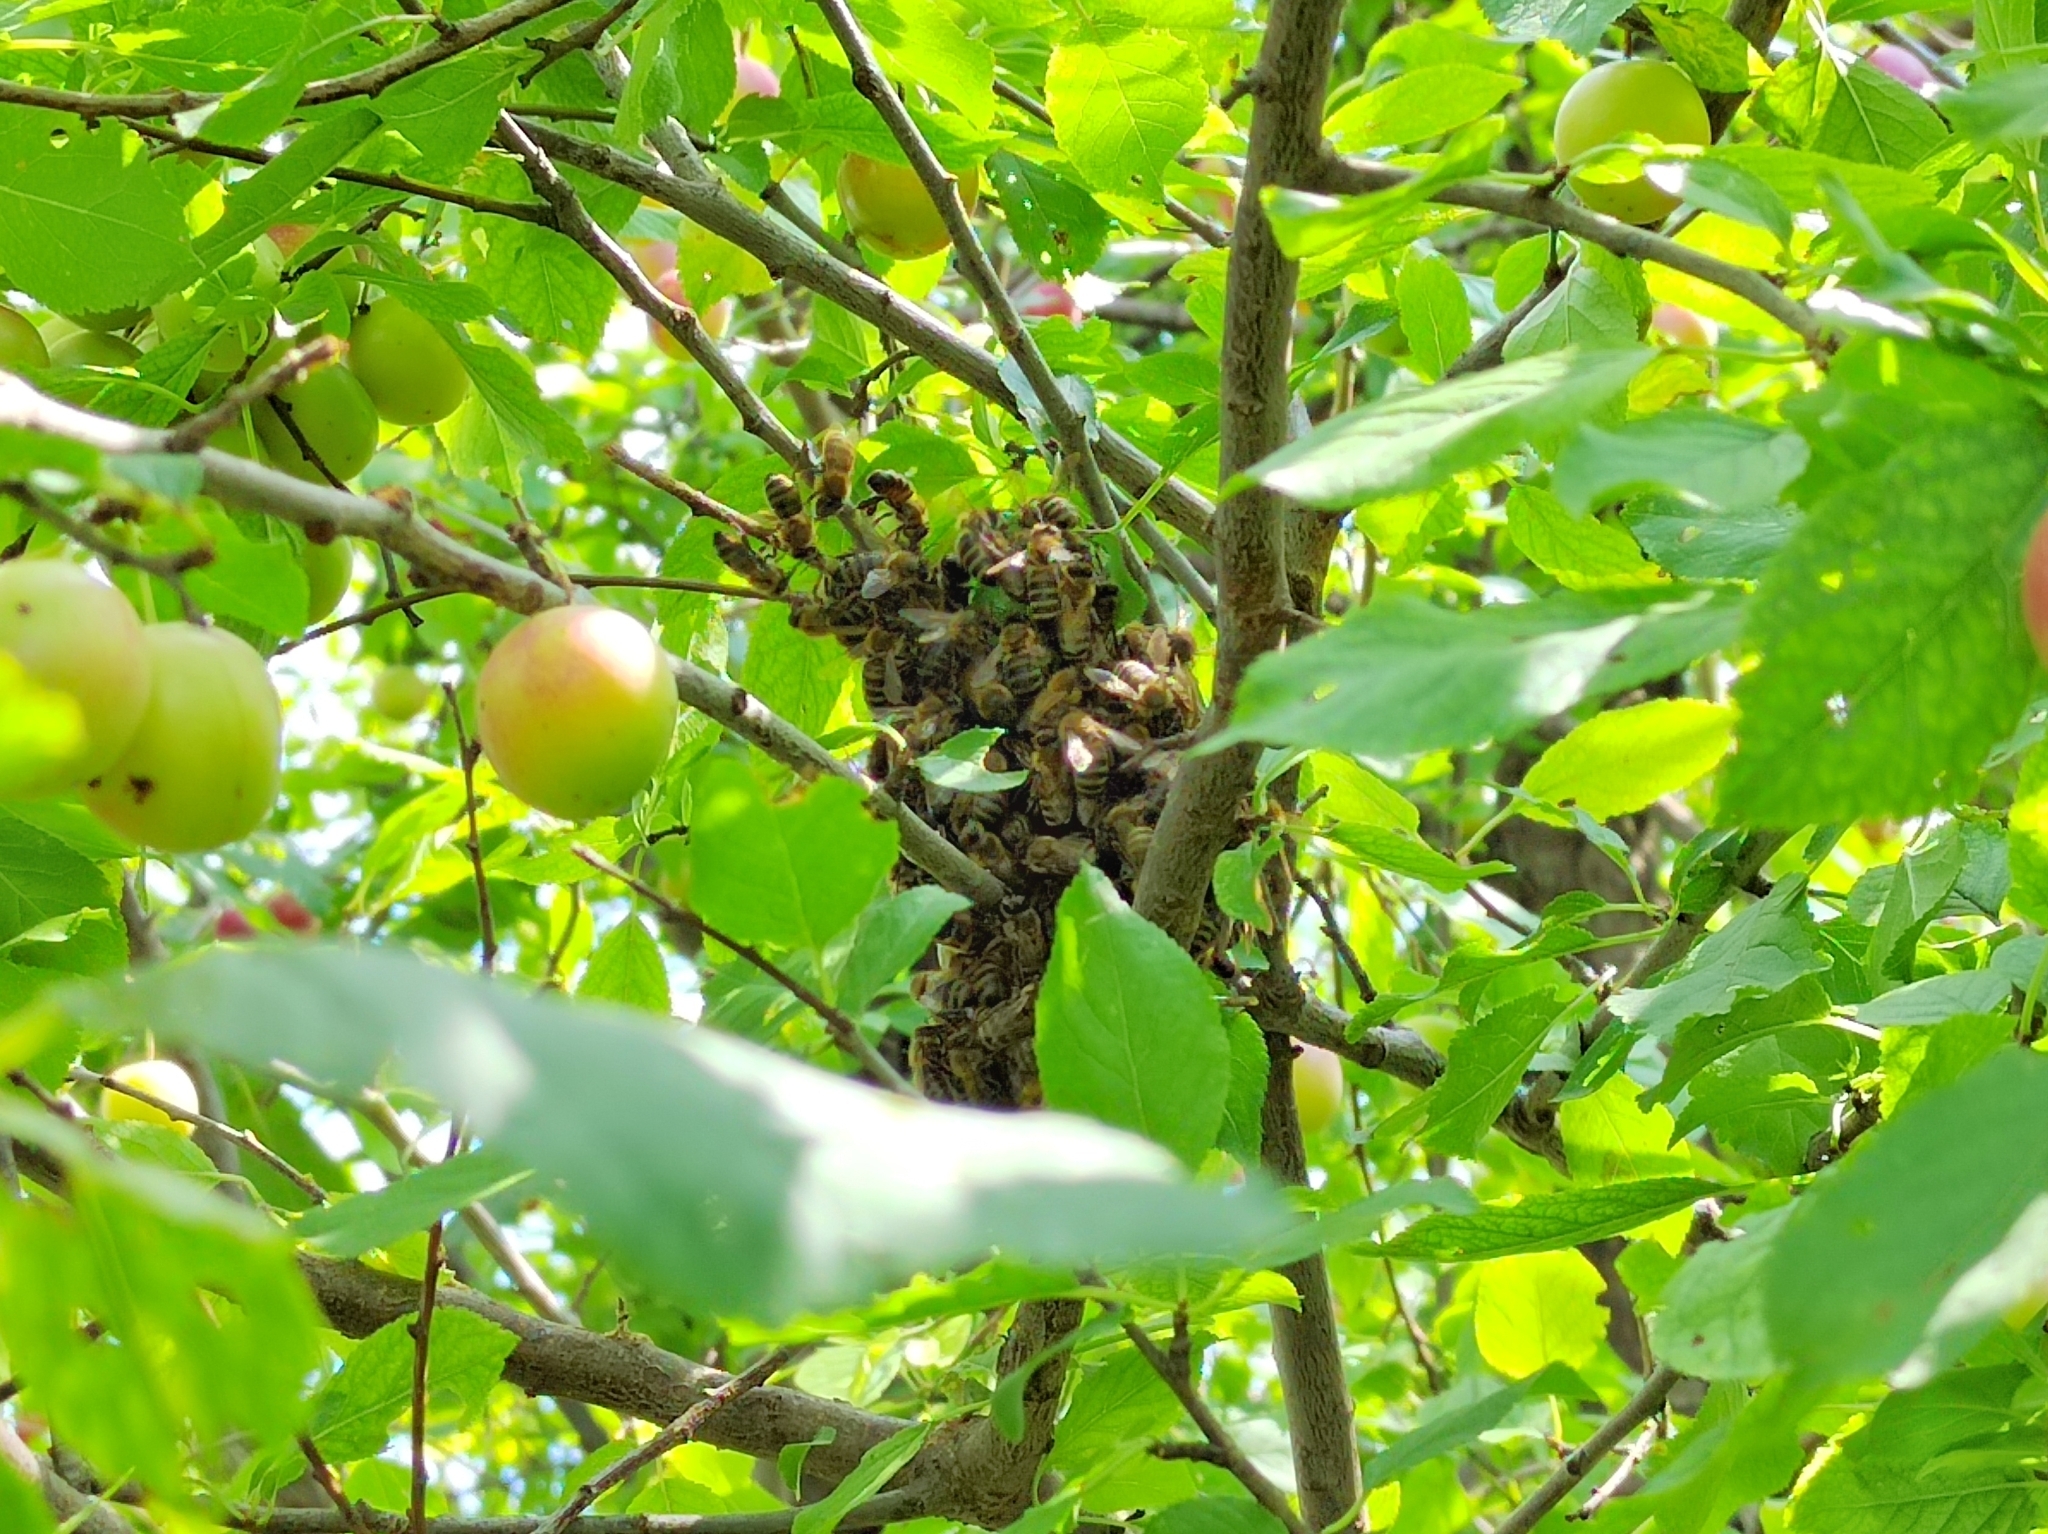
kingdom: Animalia
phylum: Arthropoda
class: Insecta
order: Hymenoptera
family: Apidae
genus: Apis
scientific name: Apis mellifera
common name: Honey bee
